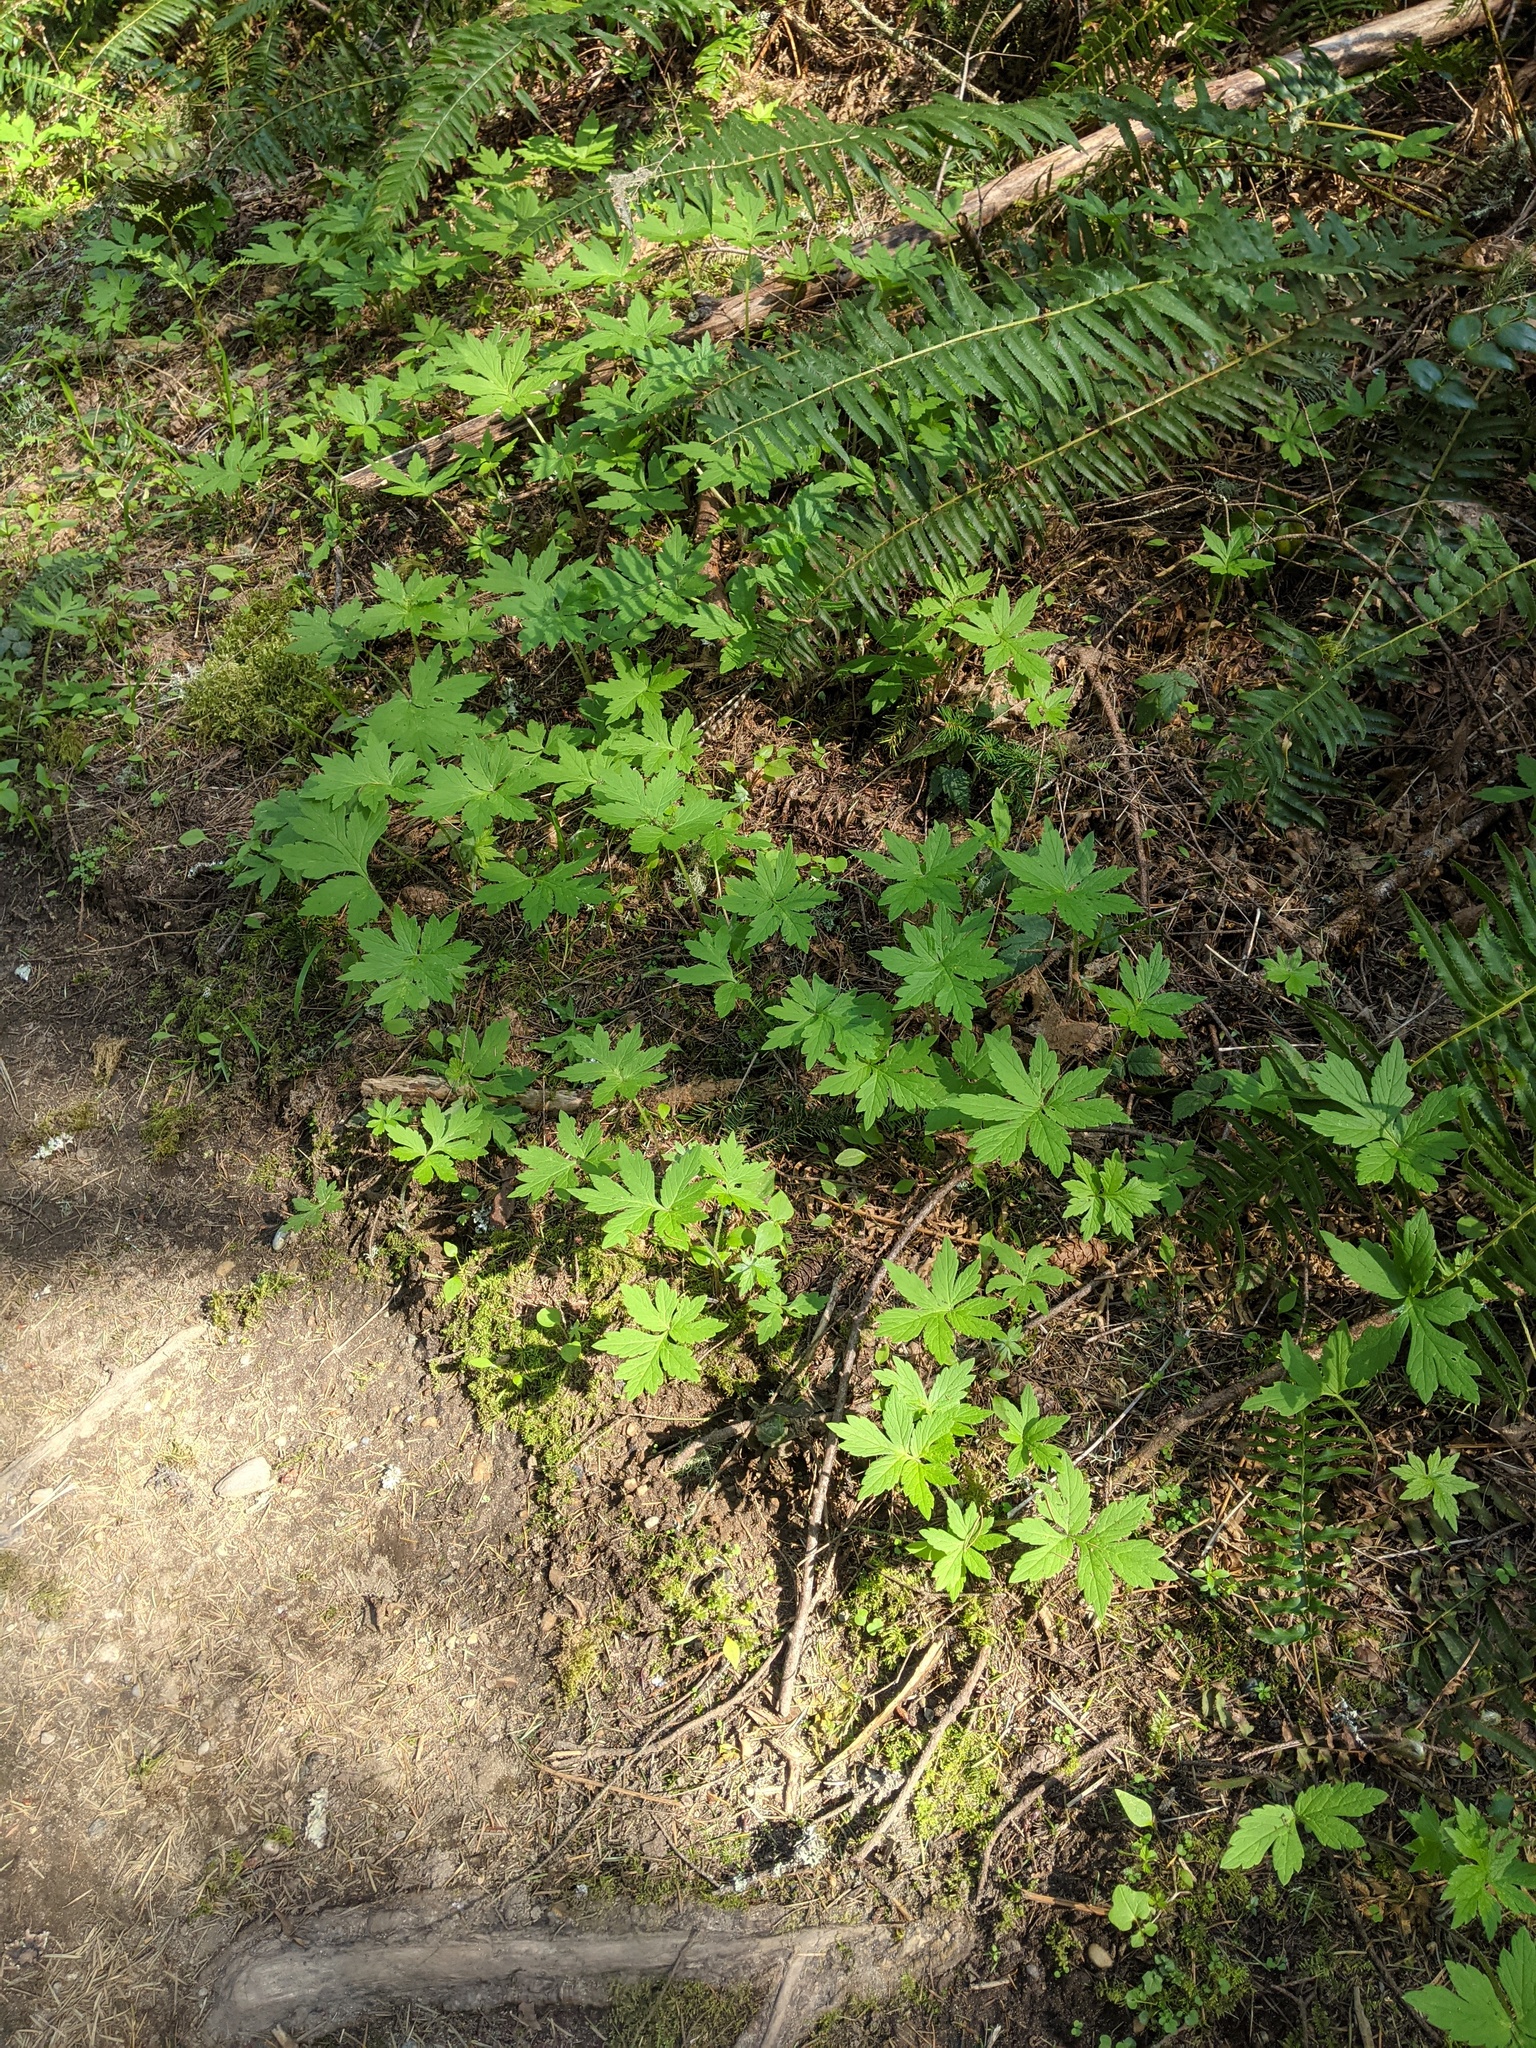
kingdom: Plantae
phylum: Tracheophyta
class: Magnoliopsida
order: Boraginales
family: Hydrophyllaceae
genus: Hydrophyllum
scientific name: Hydrophyllum tenuipes
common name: Pacific waterleaf
